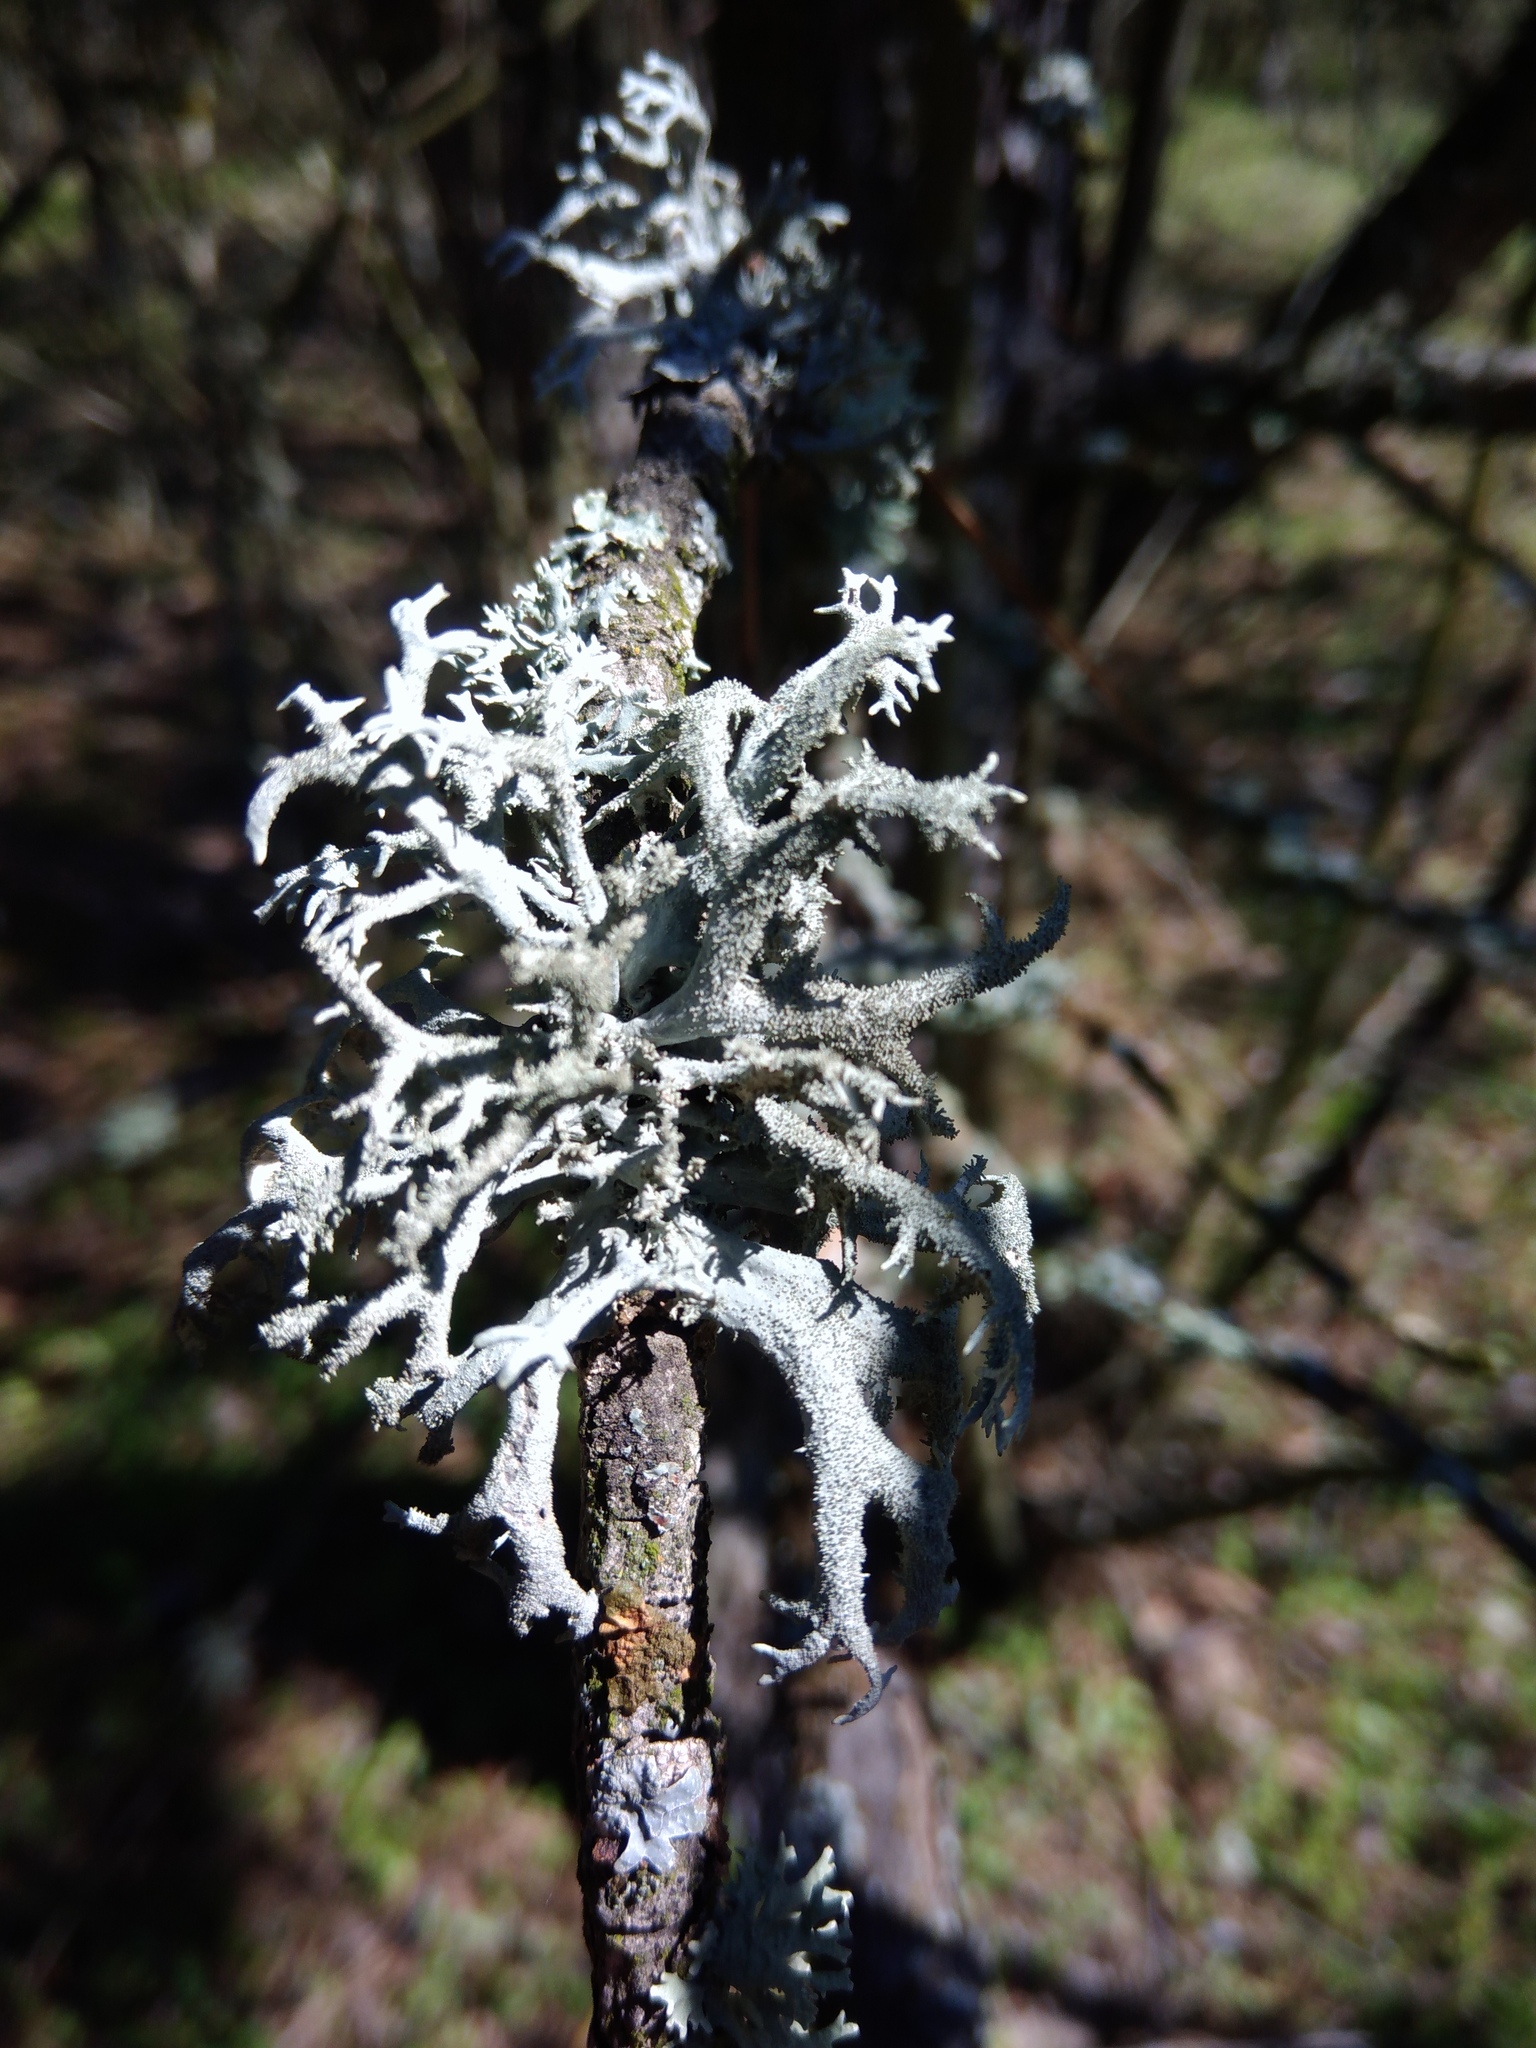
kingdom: Fungi
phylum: Ascomycota
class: Lecanoromycetes
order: Lecanorales
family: Parmeliaceae
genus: Pseudevernia
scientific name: Pseudevernia furfuracea
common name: Tree moss
